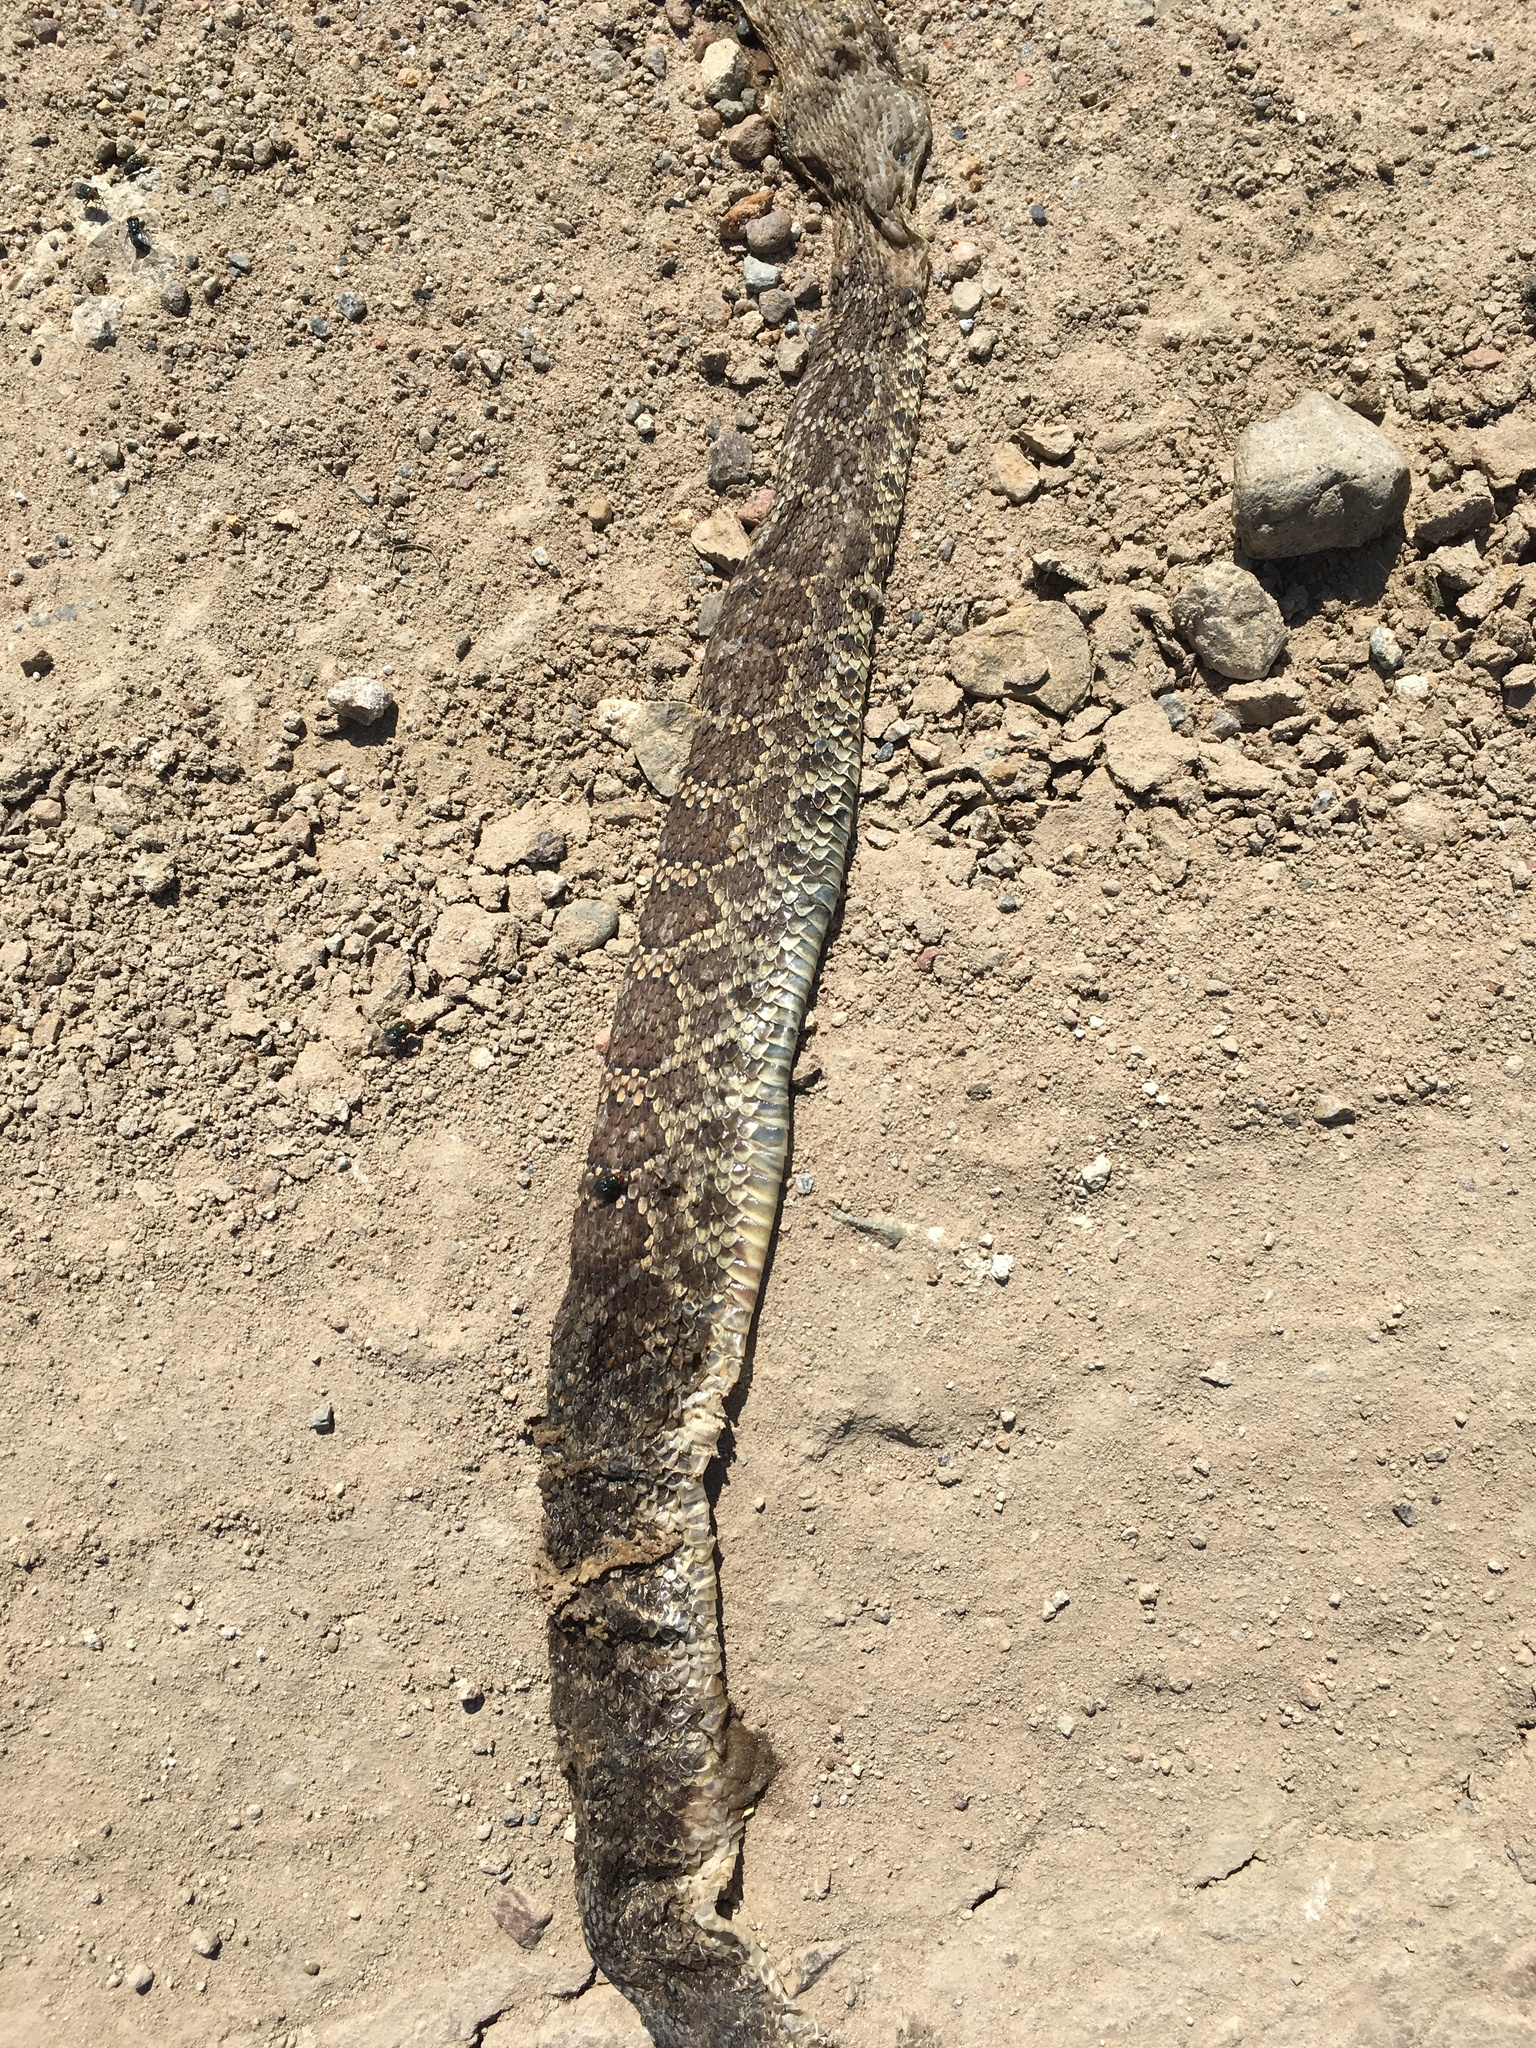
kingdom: Animalia
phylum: Chordata
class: Squamata
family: Viperidae
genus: Crotalus
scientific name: Crotalus oreganus
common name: Abyssus
